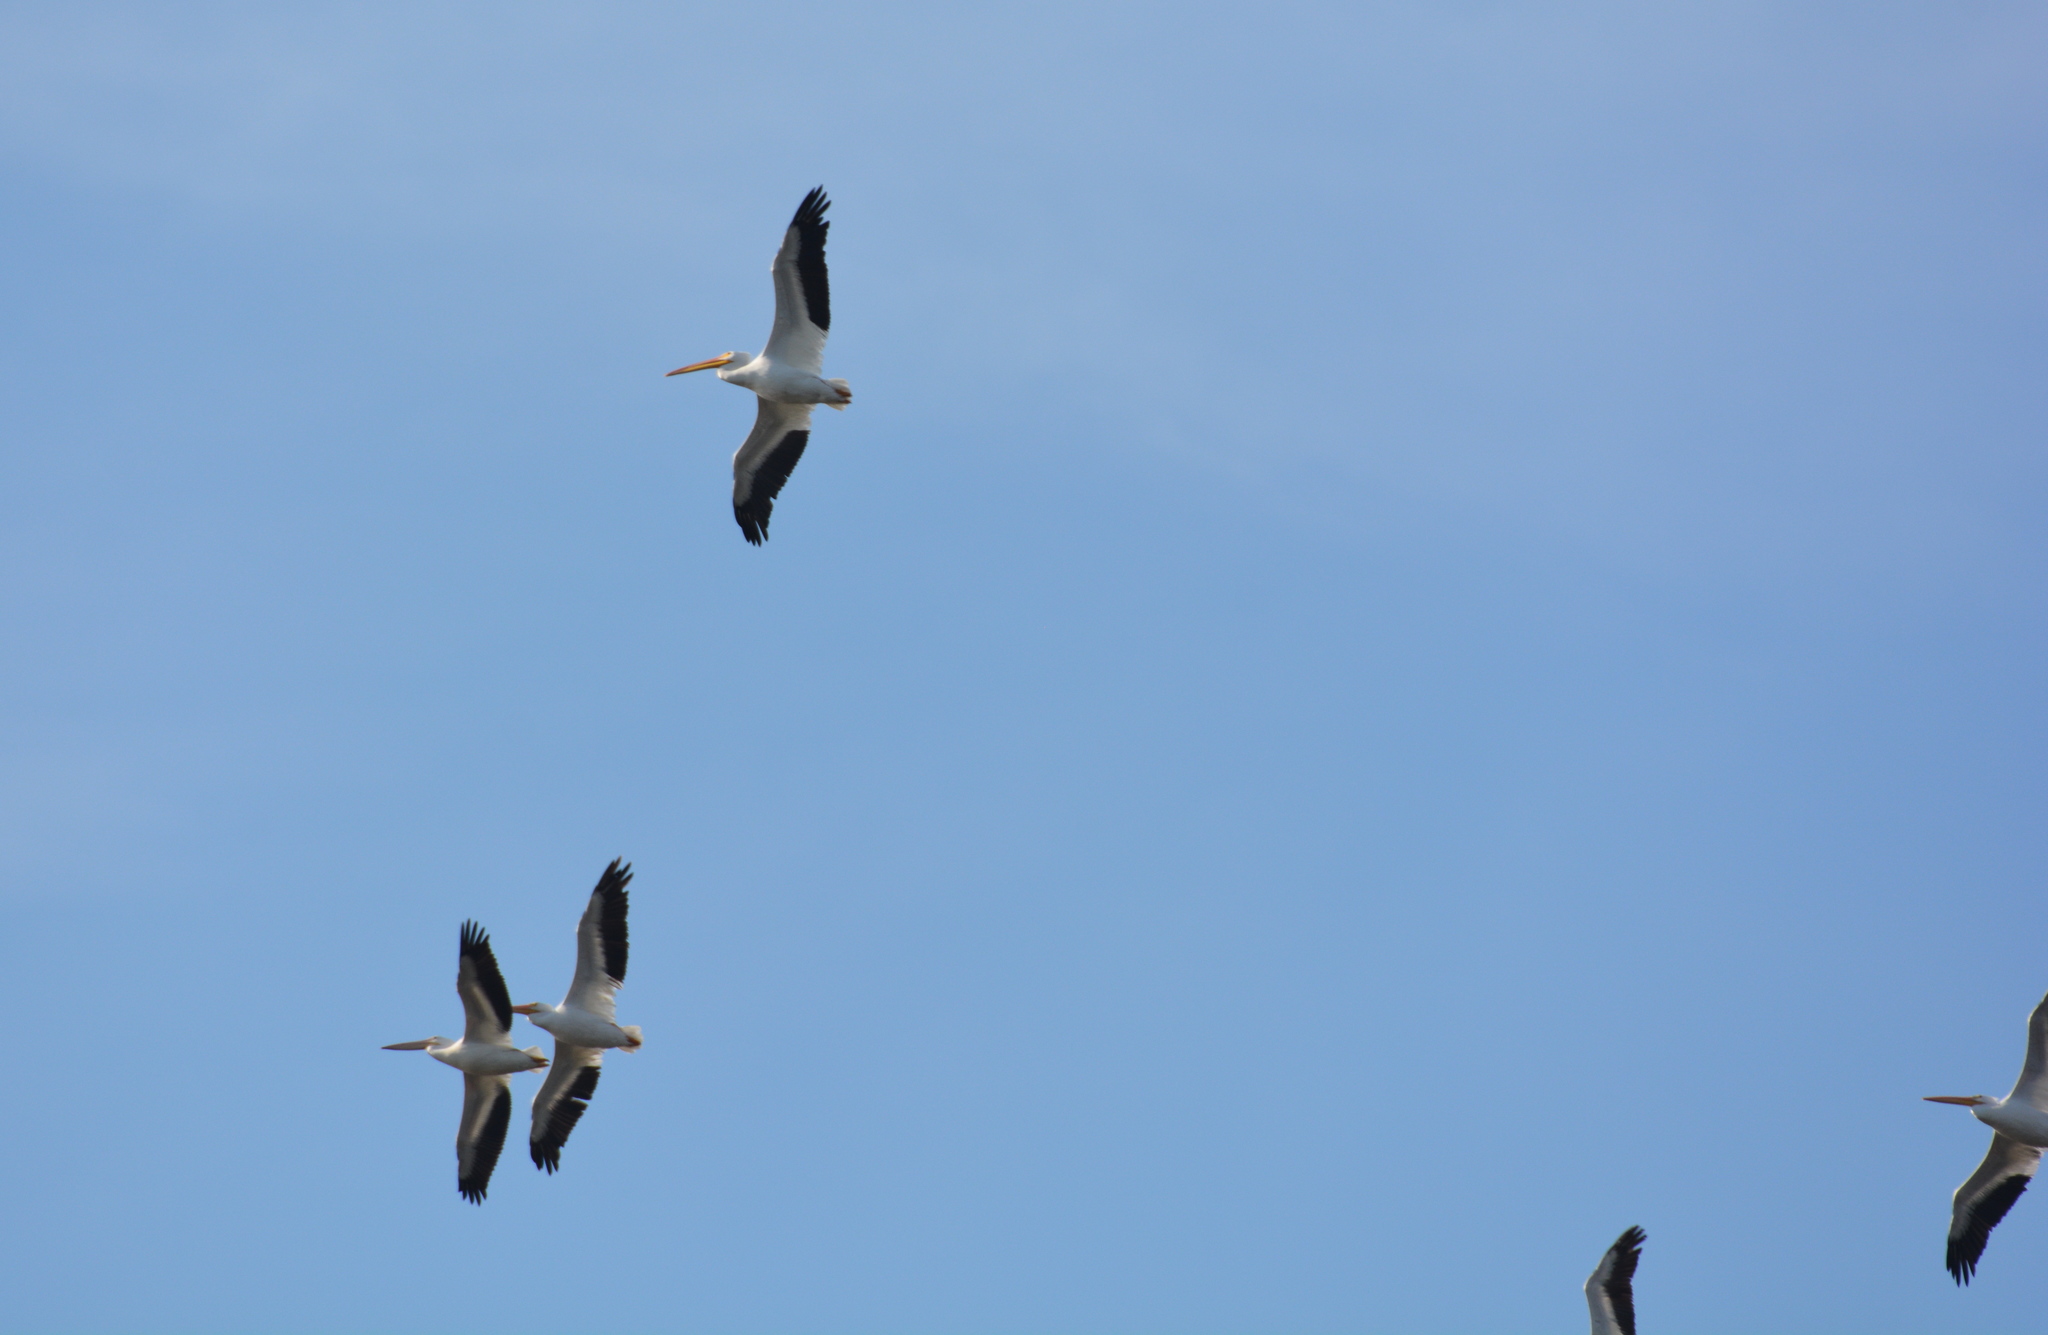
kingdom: Animalia
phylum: Chordata
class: Aves
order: Pelecaniformes
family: Pelecanidae
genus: Pelecanus
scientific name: Pelecanus erythrorhynchos
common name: American white pelican
